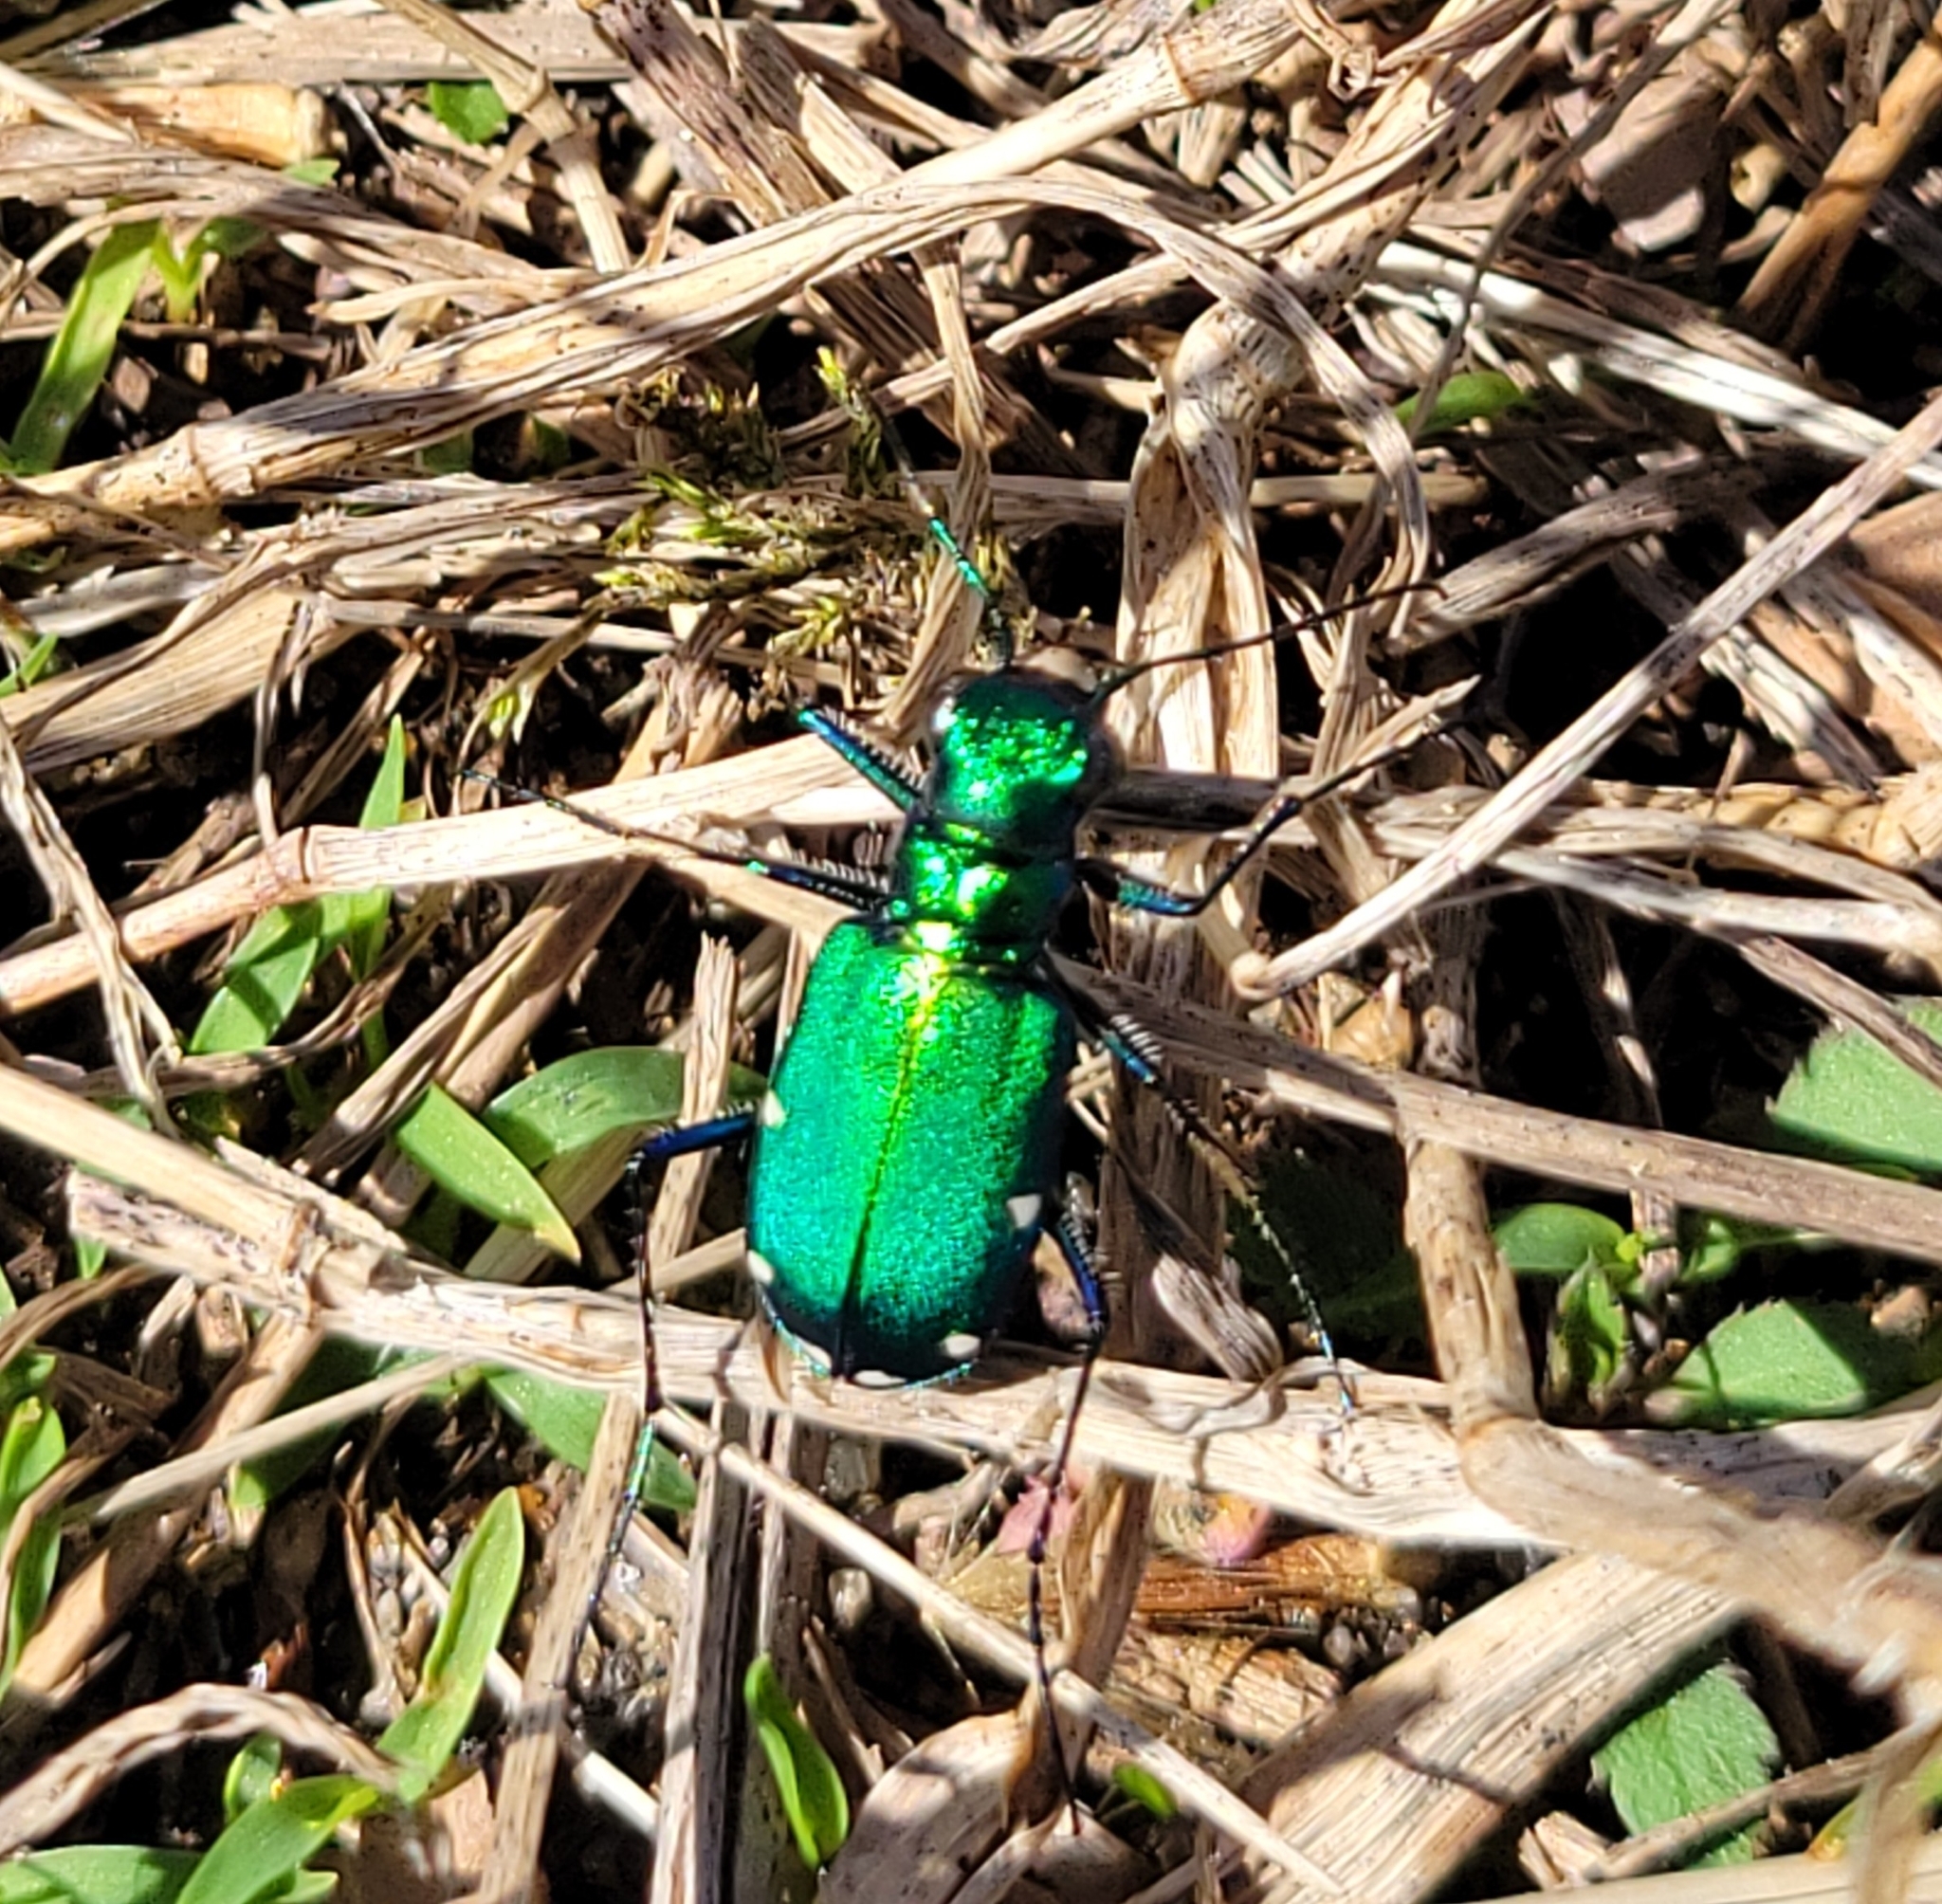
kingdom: Animalia
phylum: Arthropoda
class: Insecta
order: Coleoptera
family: Carabidae
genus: Cicindela
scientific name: Cicindela sexguttata
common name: Six-spotted tiger beetle
